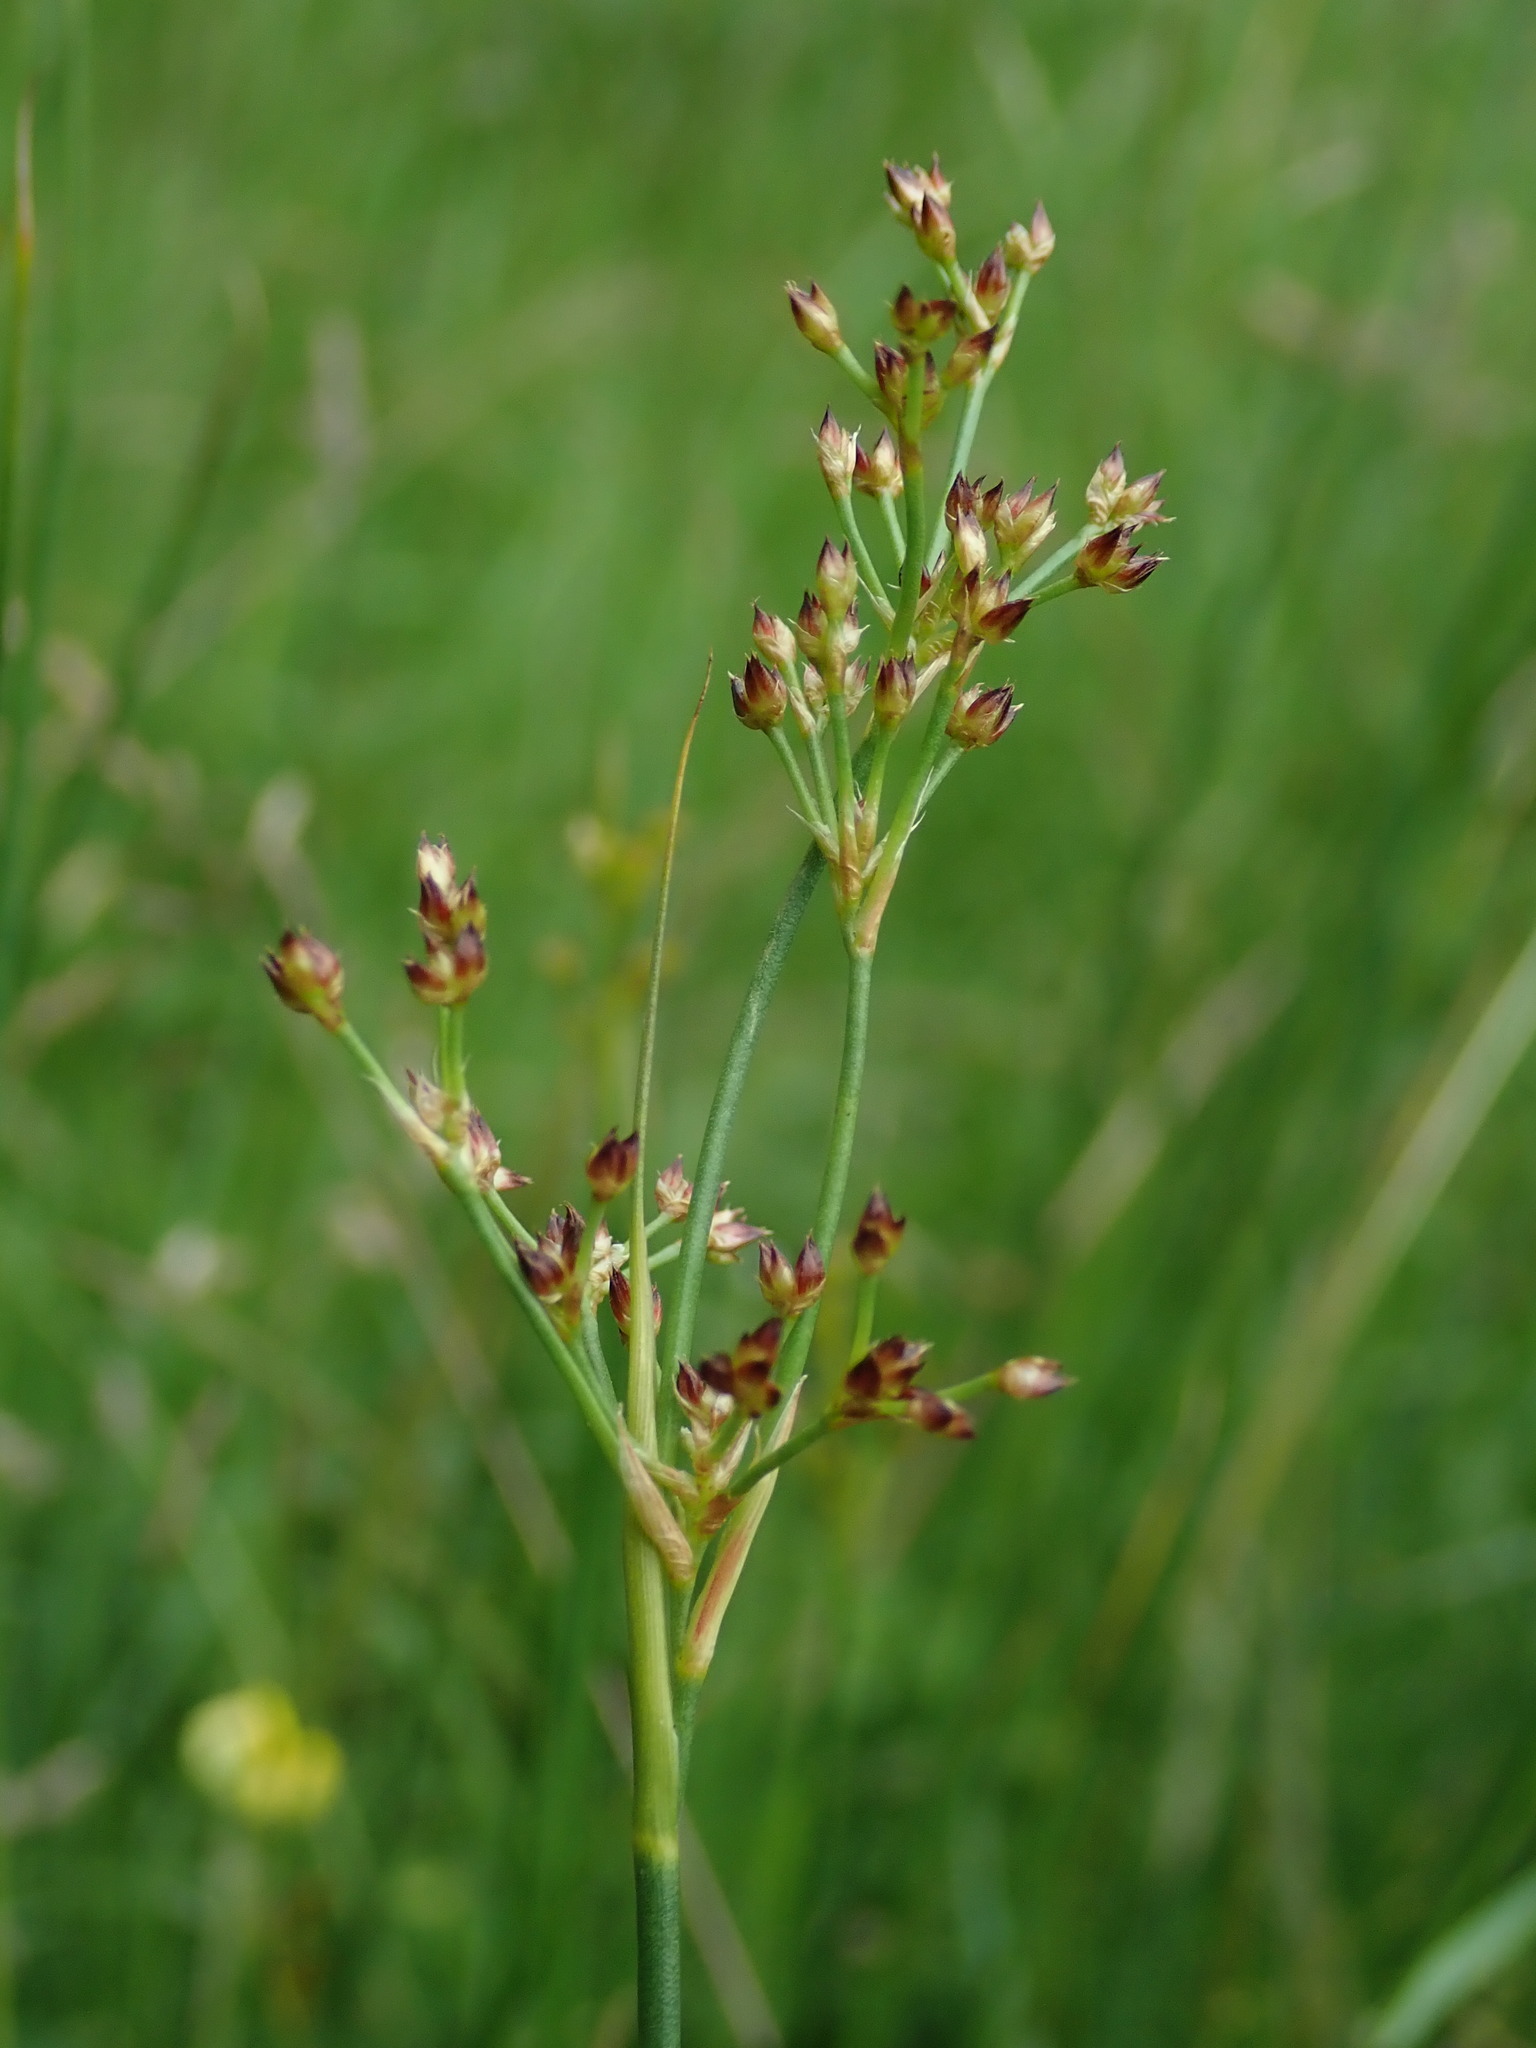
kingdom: Plantae
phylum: Tracheophyta
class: Liliopsida
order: Poales
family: Juncaceae
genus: Juncus
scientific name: Juncus acutiflorus
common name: Sharp-flowered rush
